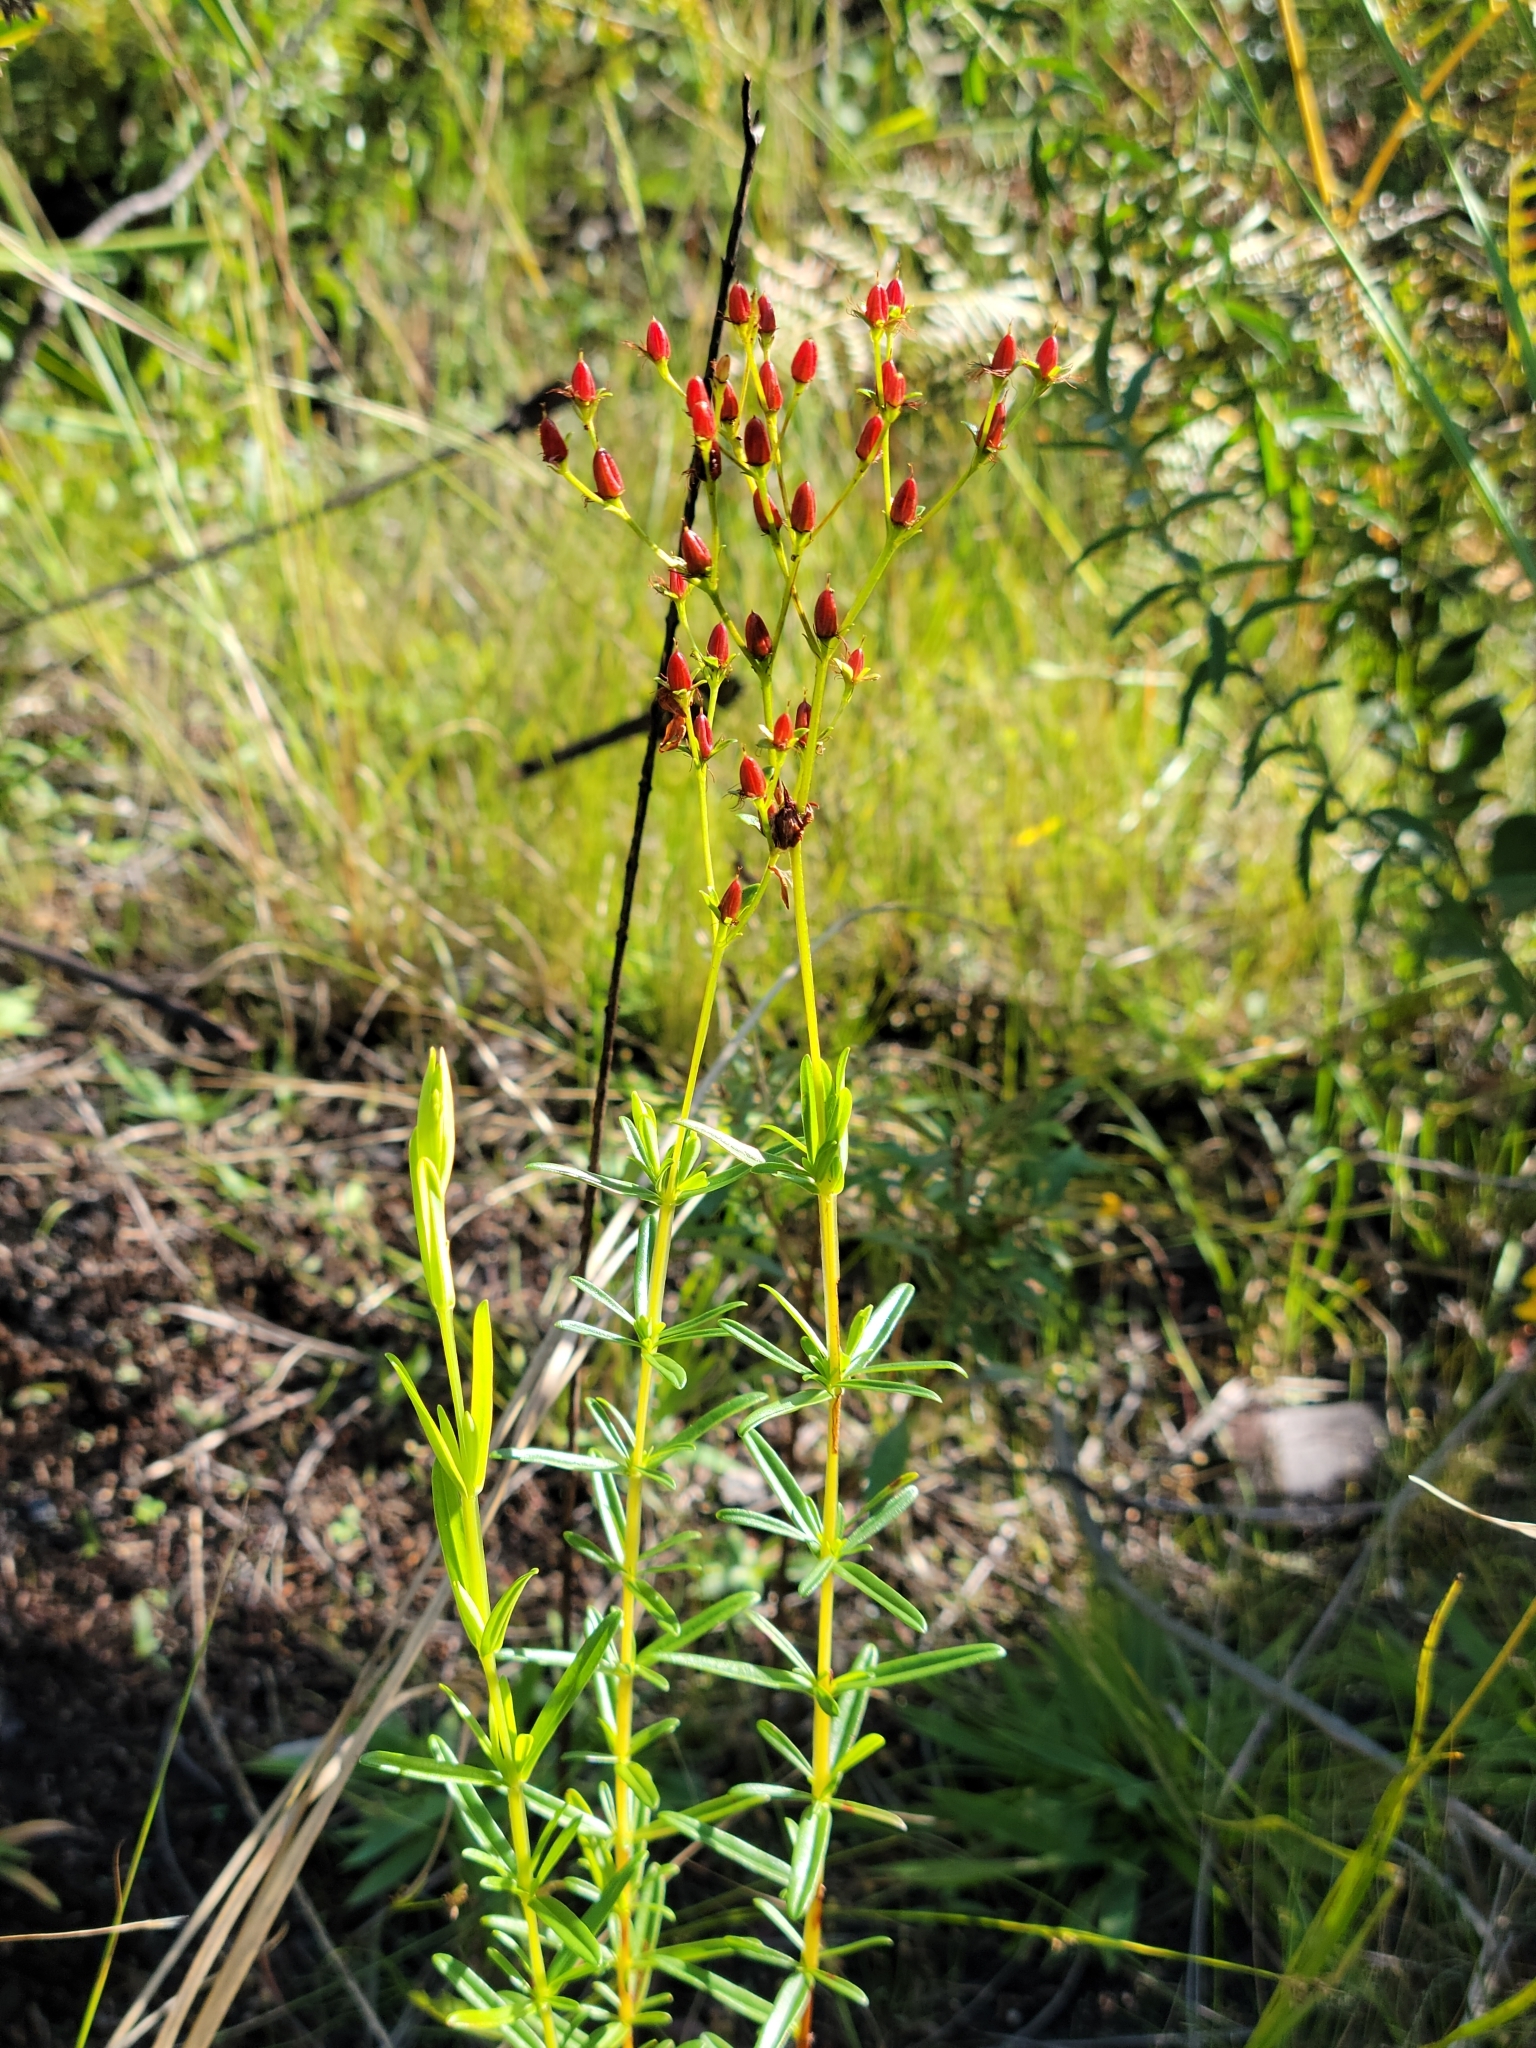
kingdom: Plantae
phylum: Tracheophyta
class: Magnoliopsida
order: Malpighiales
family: Hypericaceae
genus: Hypericum
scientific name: Hypericum cistifolium
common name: Round-pod st. john's-wort
